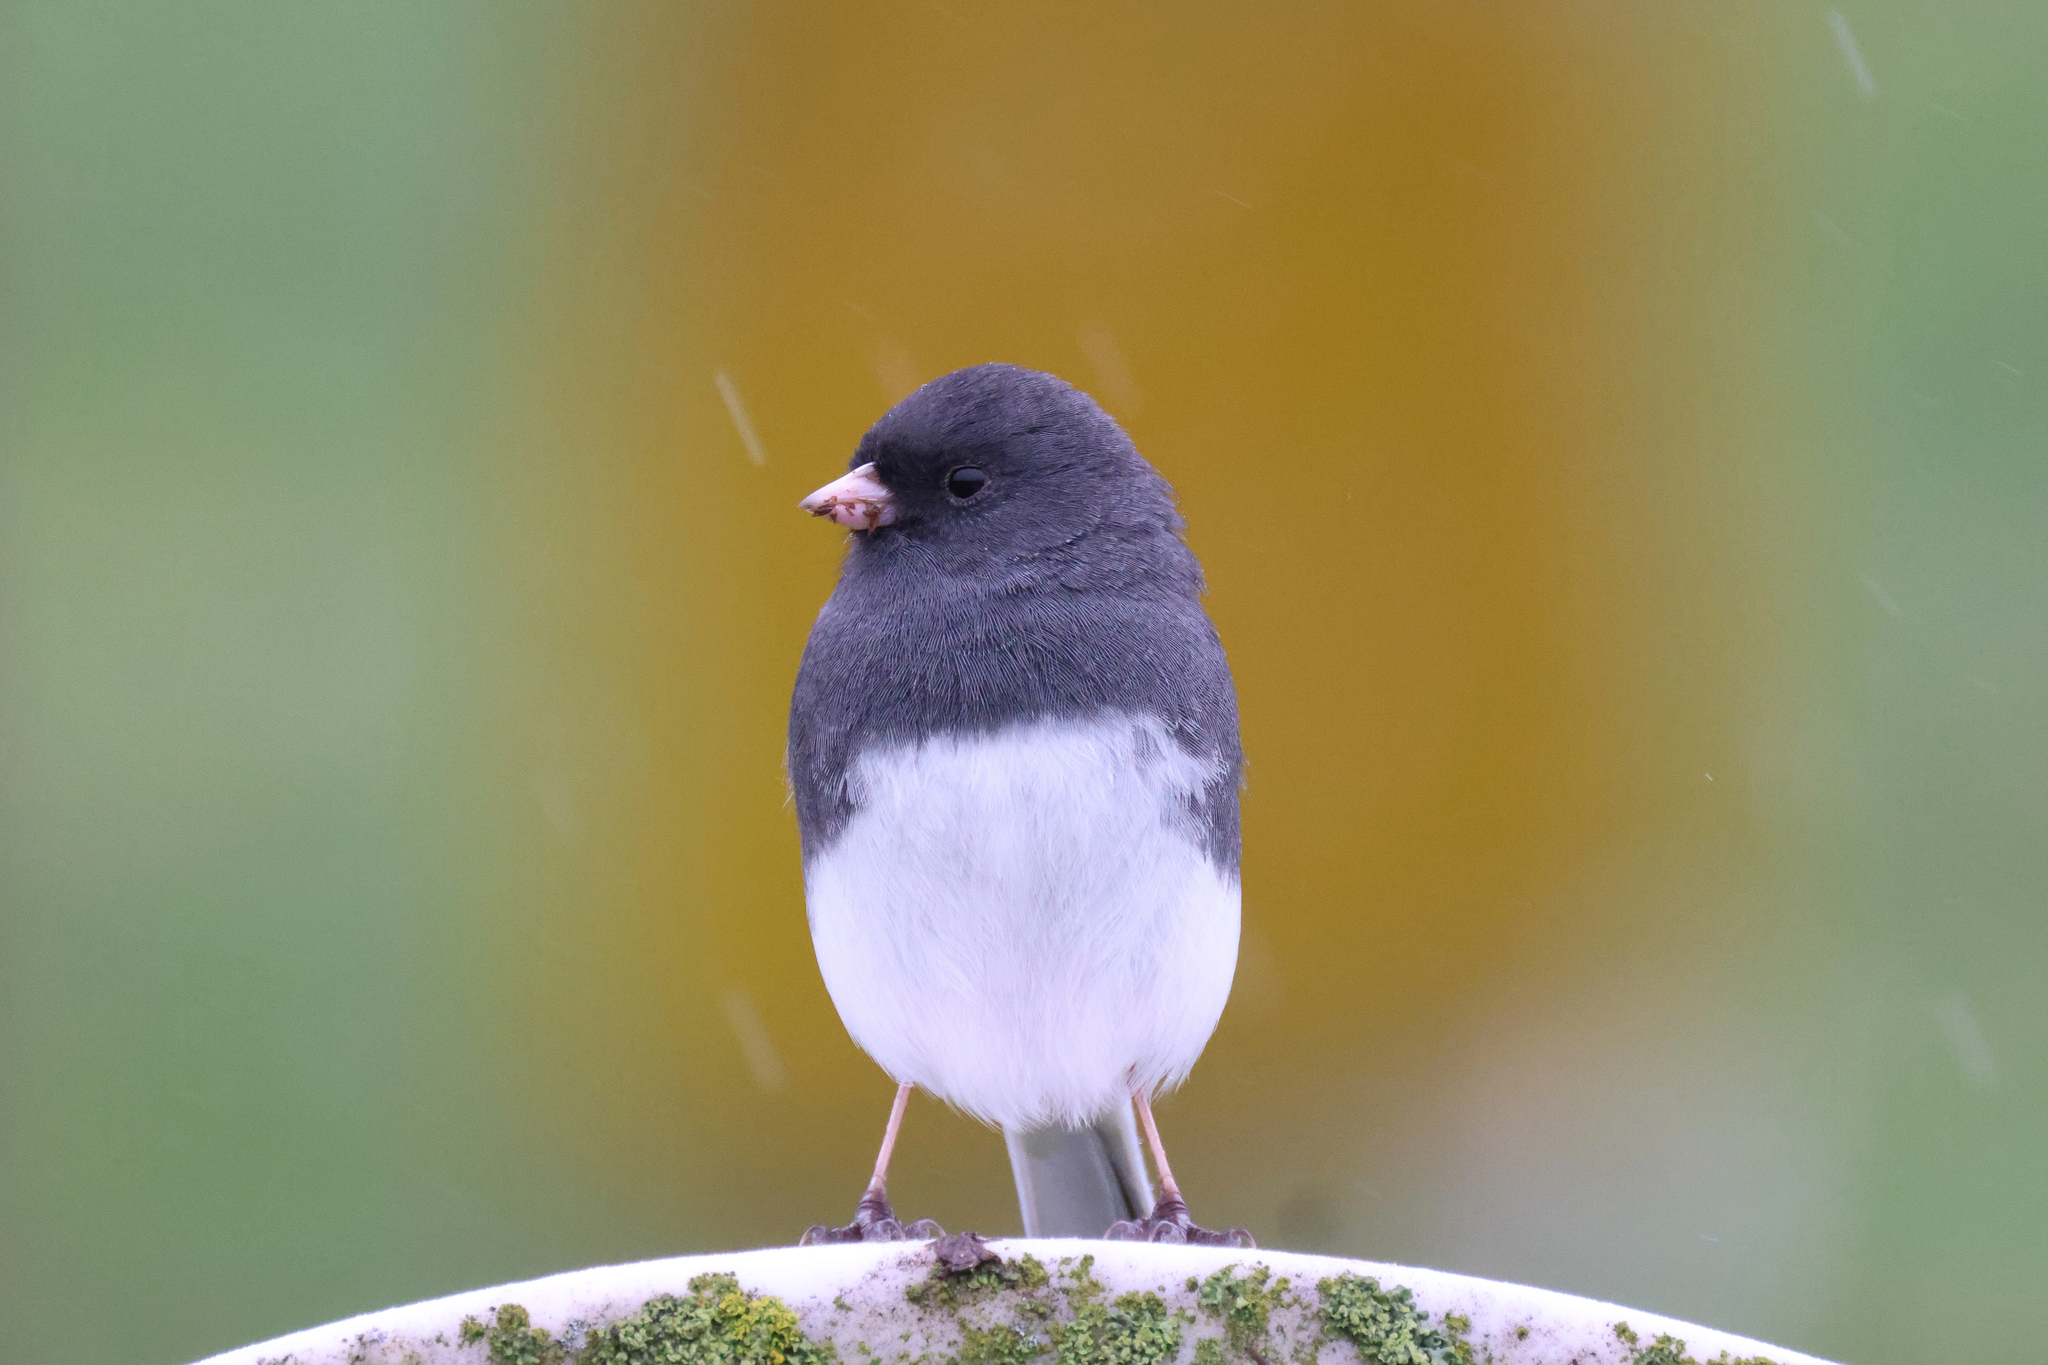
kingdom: Animalia
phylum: Chordata
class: Aves
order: Passeriformes
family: Passerellidae
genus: Junco
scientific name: Junco hyemalis
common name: Dark-eyed junco
